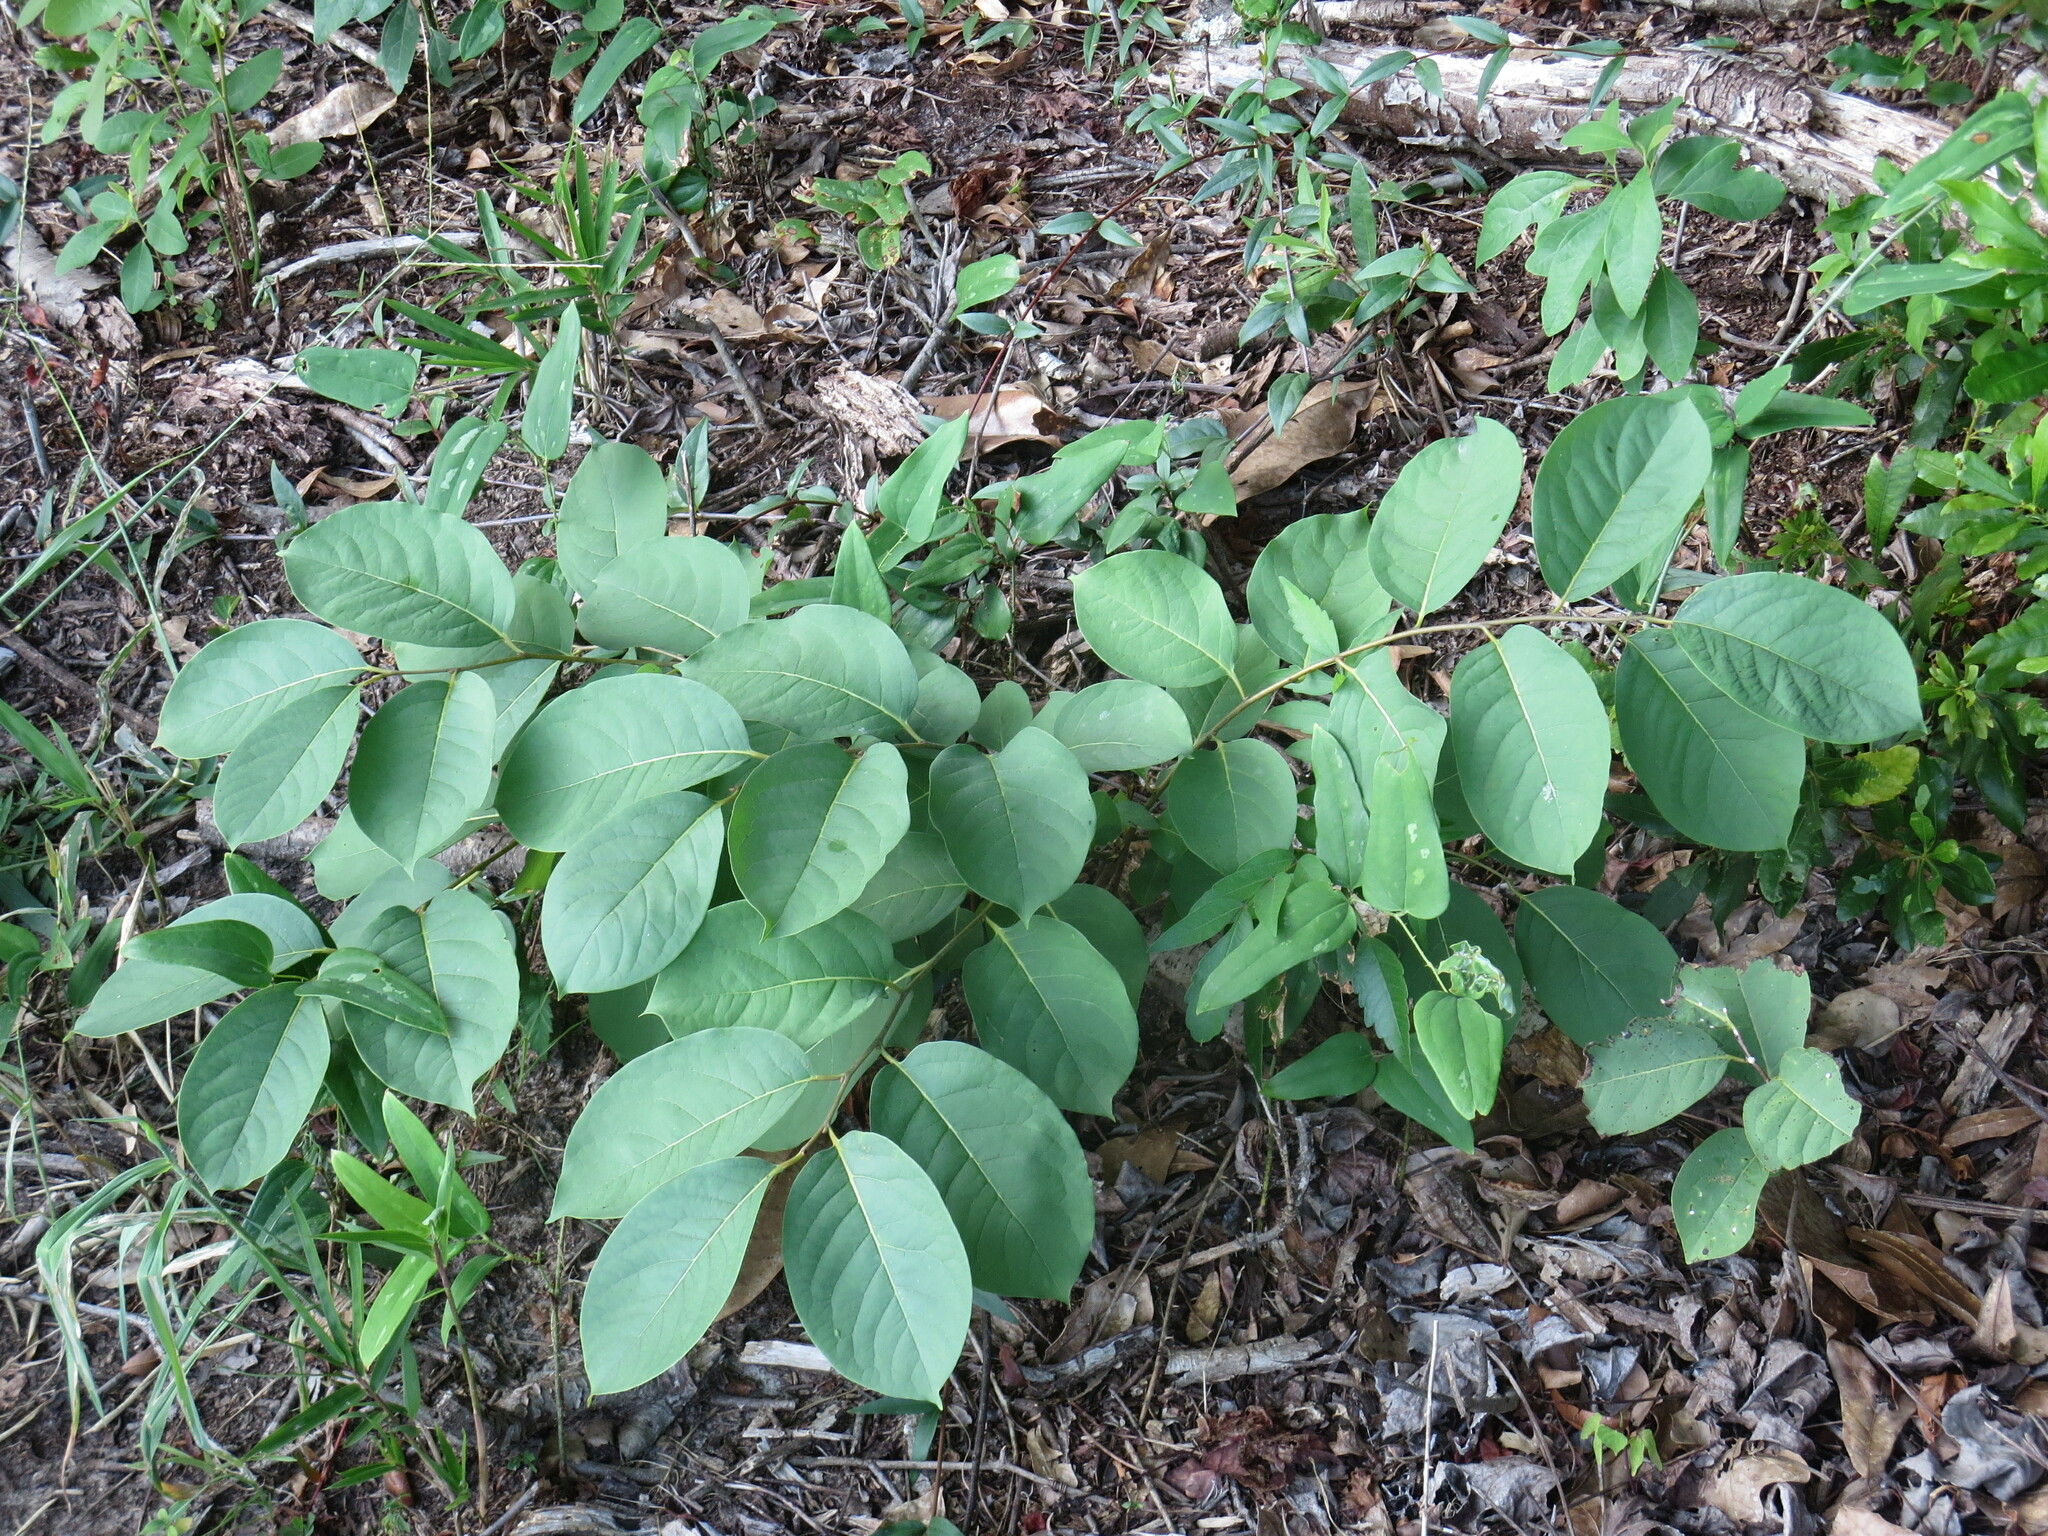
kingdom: Plantae
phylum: Tracheophyta
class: Magnoliopsida
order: Ericales
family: Ebenaceae
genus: Diospyros
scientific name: Diospyros virginiana
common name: Persimmon
